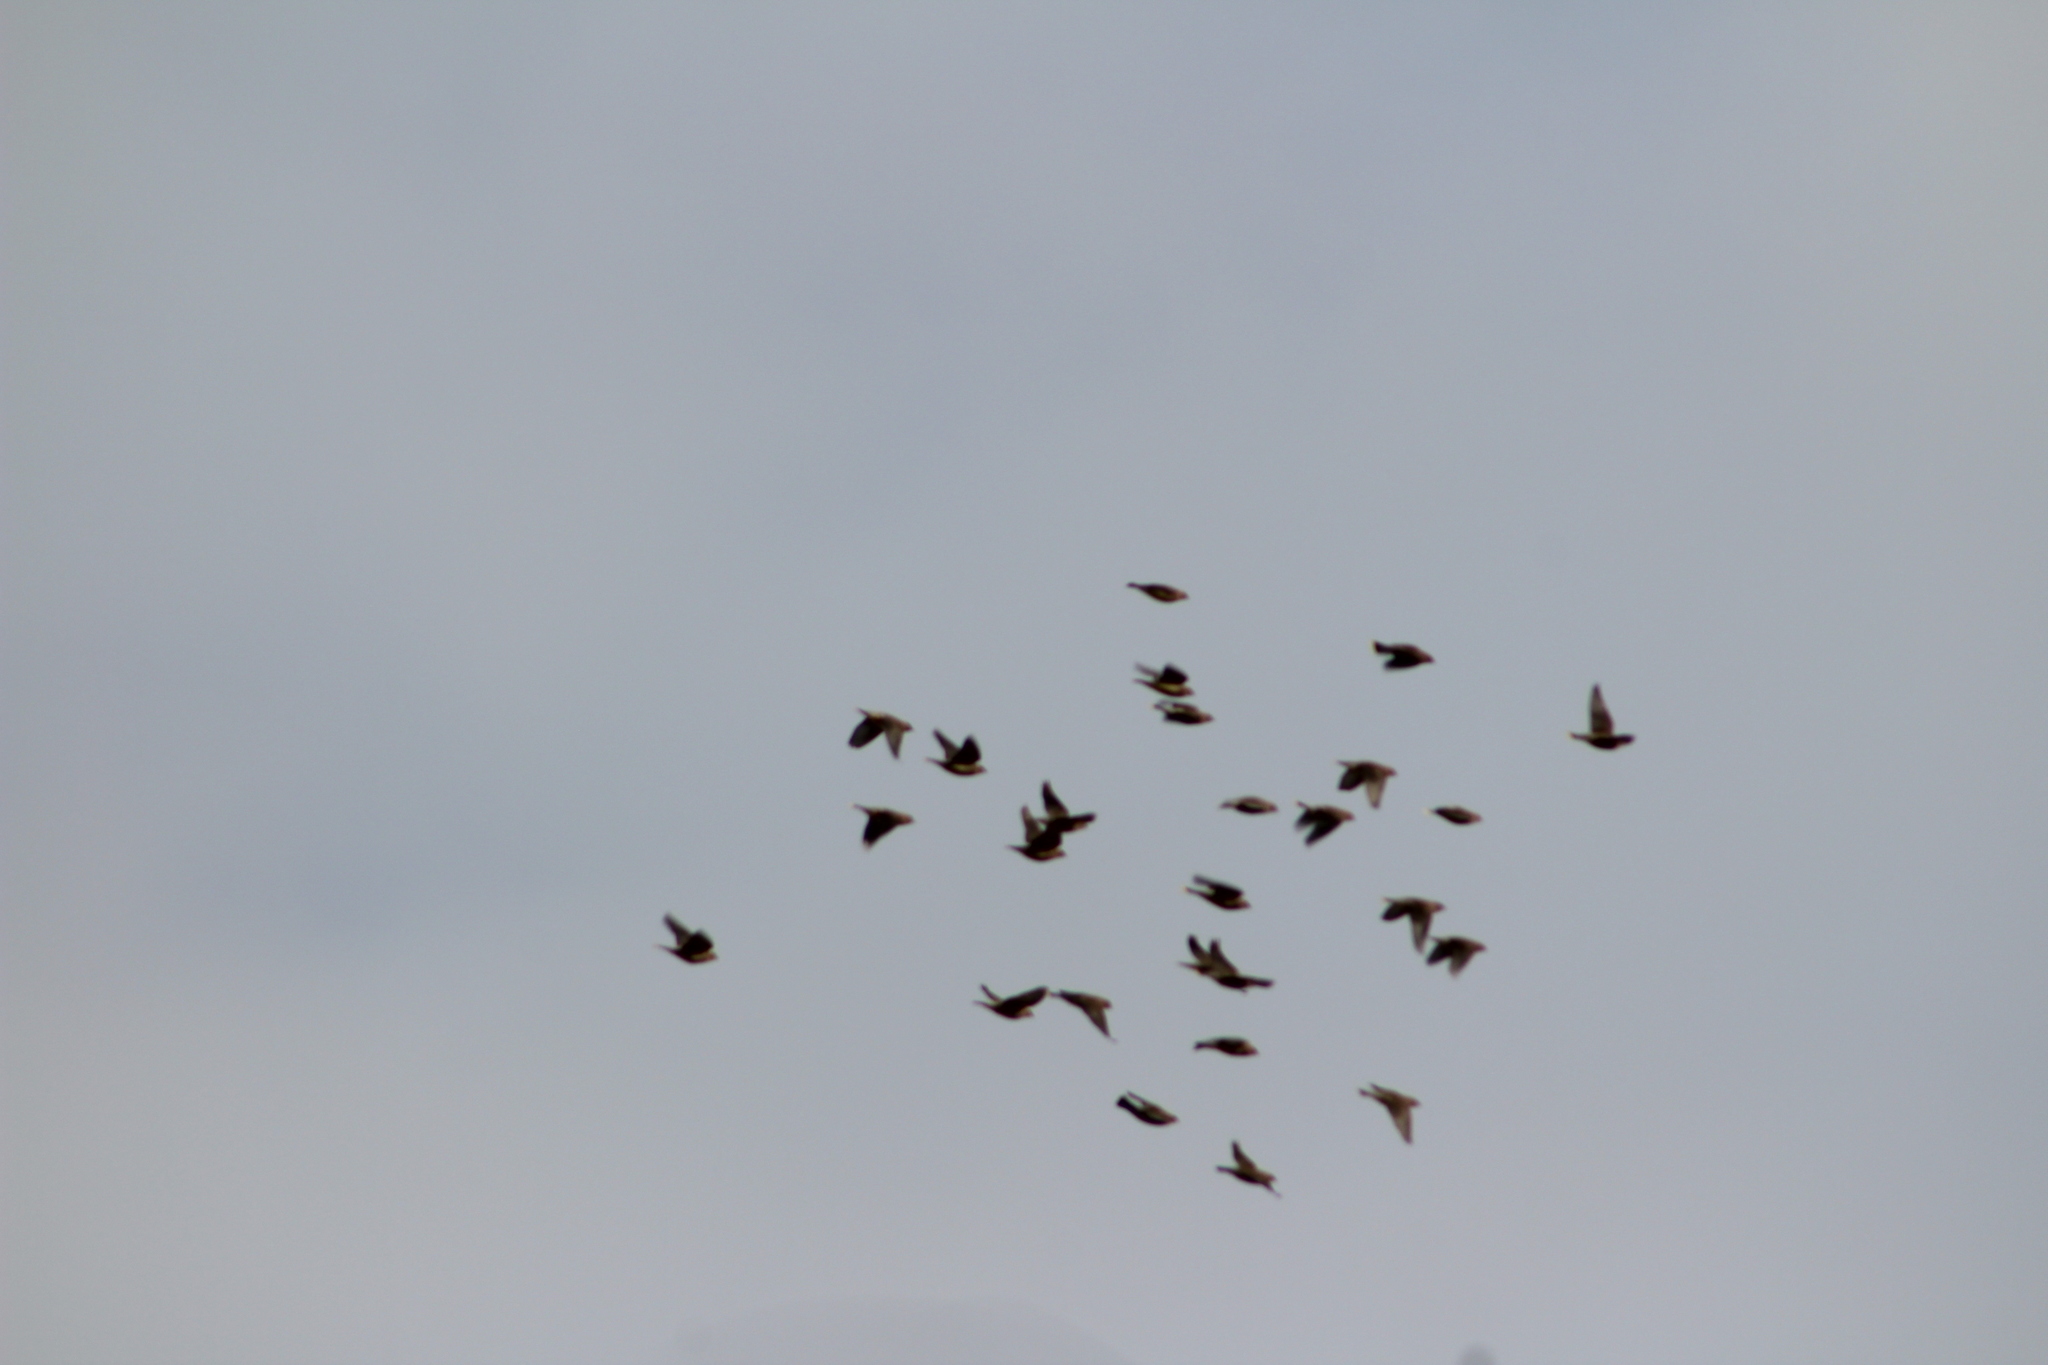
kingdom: Animalia
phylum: Chordata
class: Aves
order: Passeriformes
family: Bombycillidae
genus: Bombycilla
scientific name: Bombycilla cedrorum
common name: Cedar waxwing
